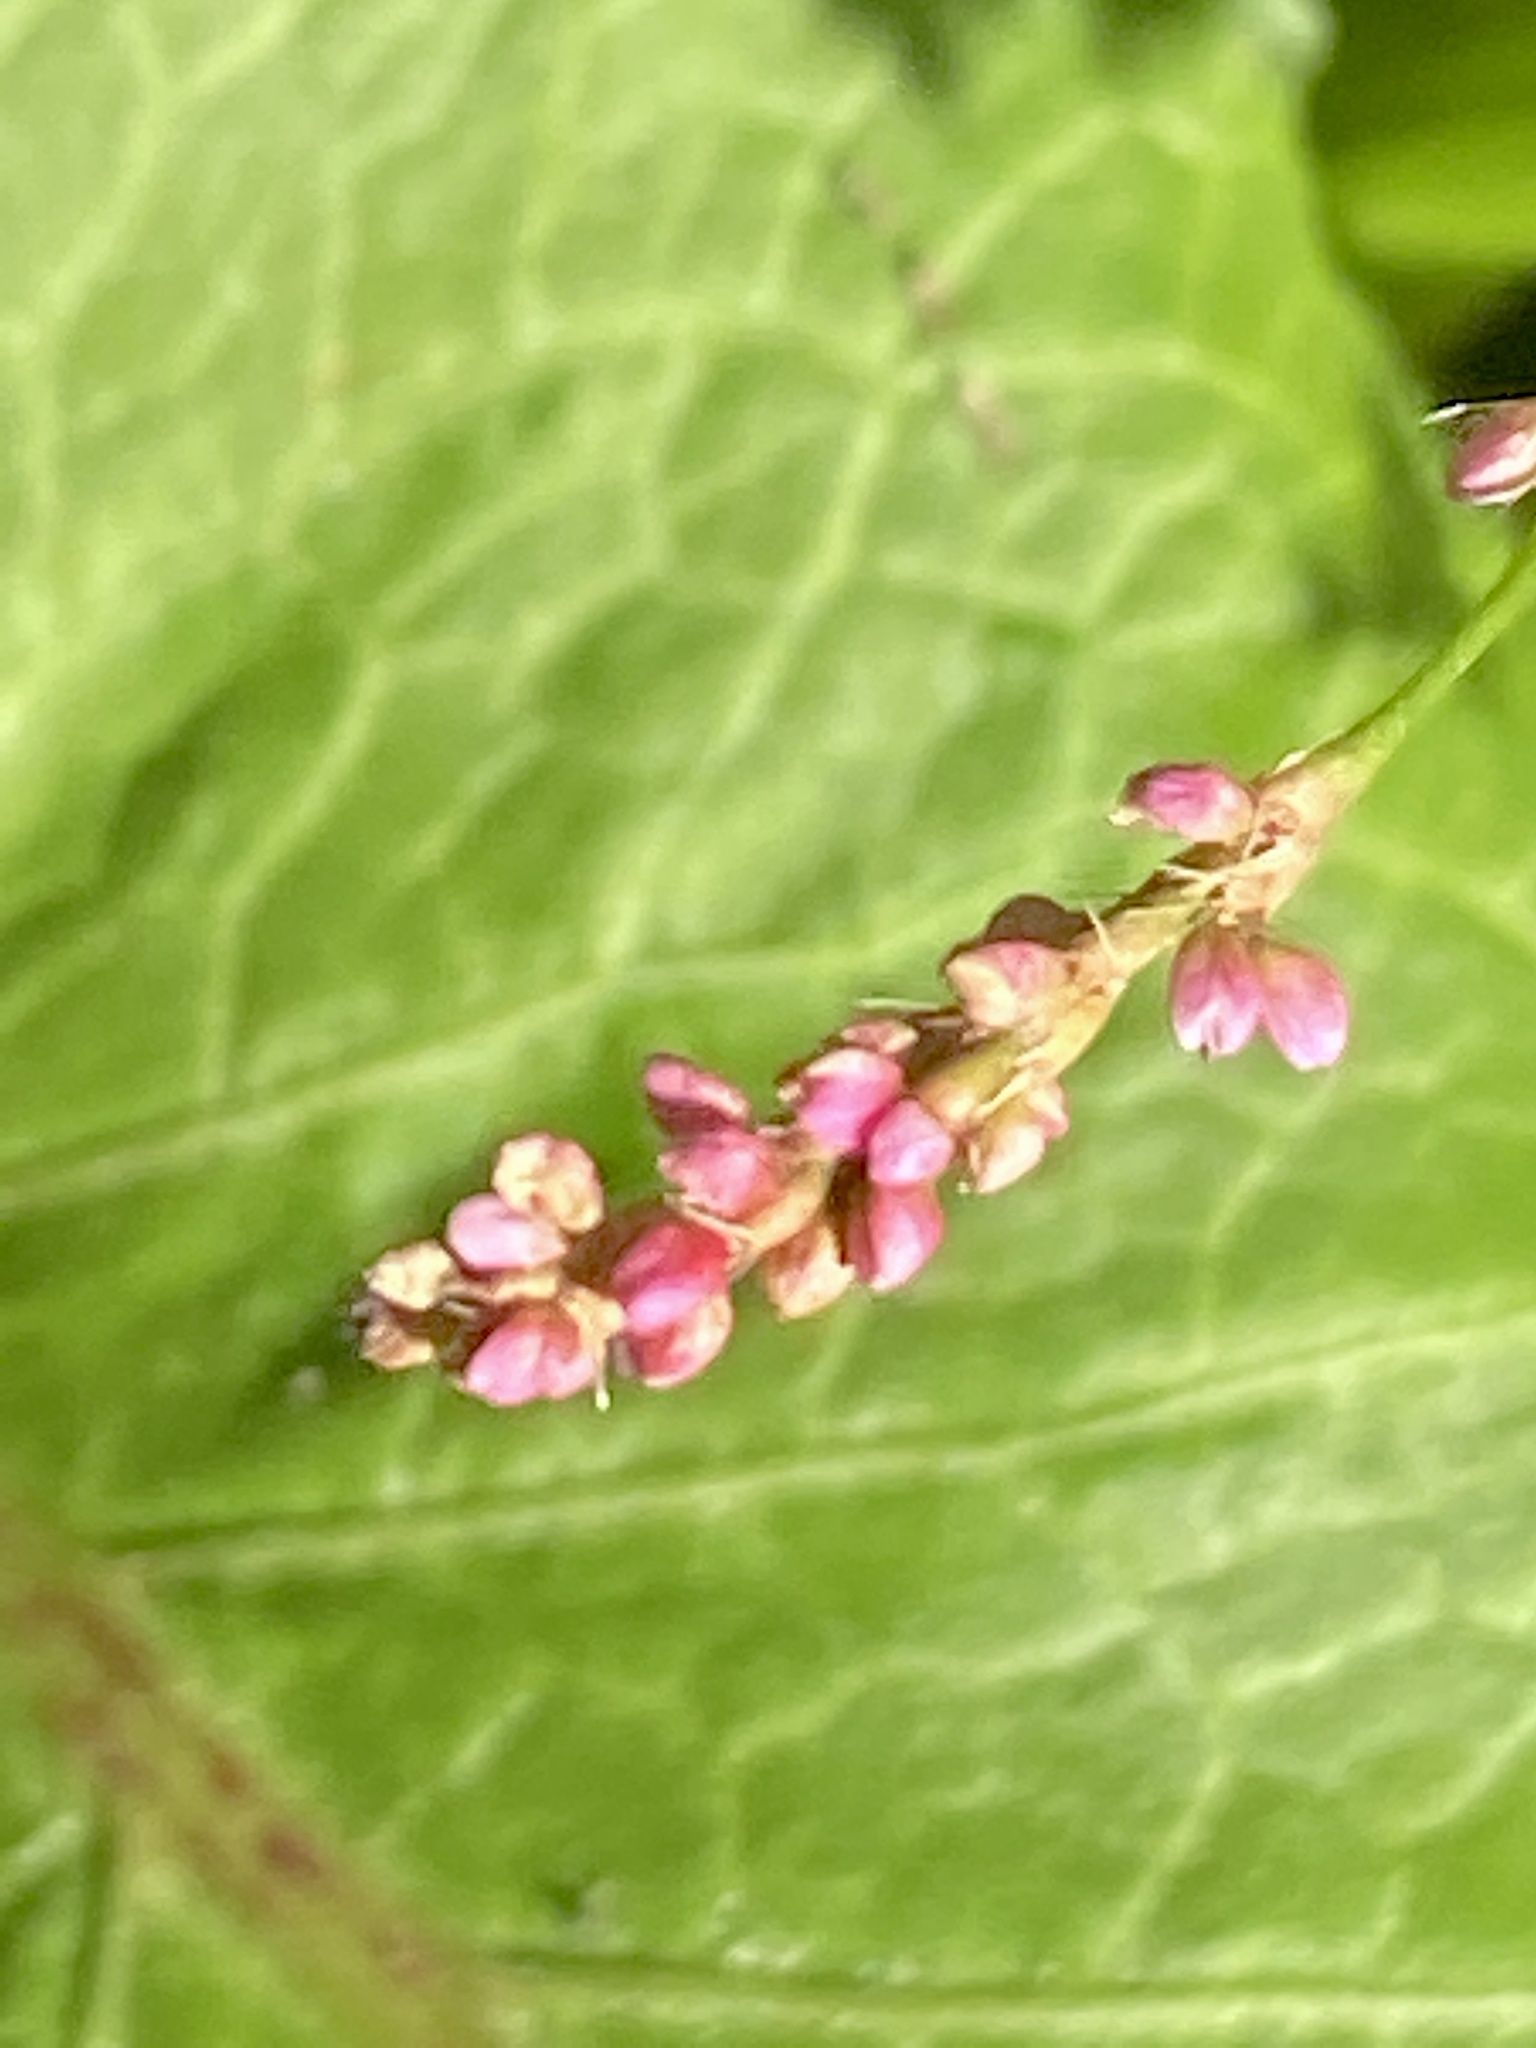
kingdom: Plantae
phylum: Tracheophyta
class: Magnoliopsida
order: Caryophyllales
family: Polygonaceae
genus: Persicaria
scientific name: Persicaria longiseta
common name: Bristly lady's-thumb
